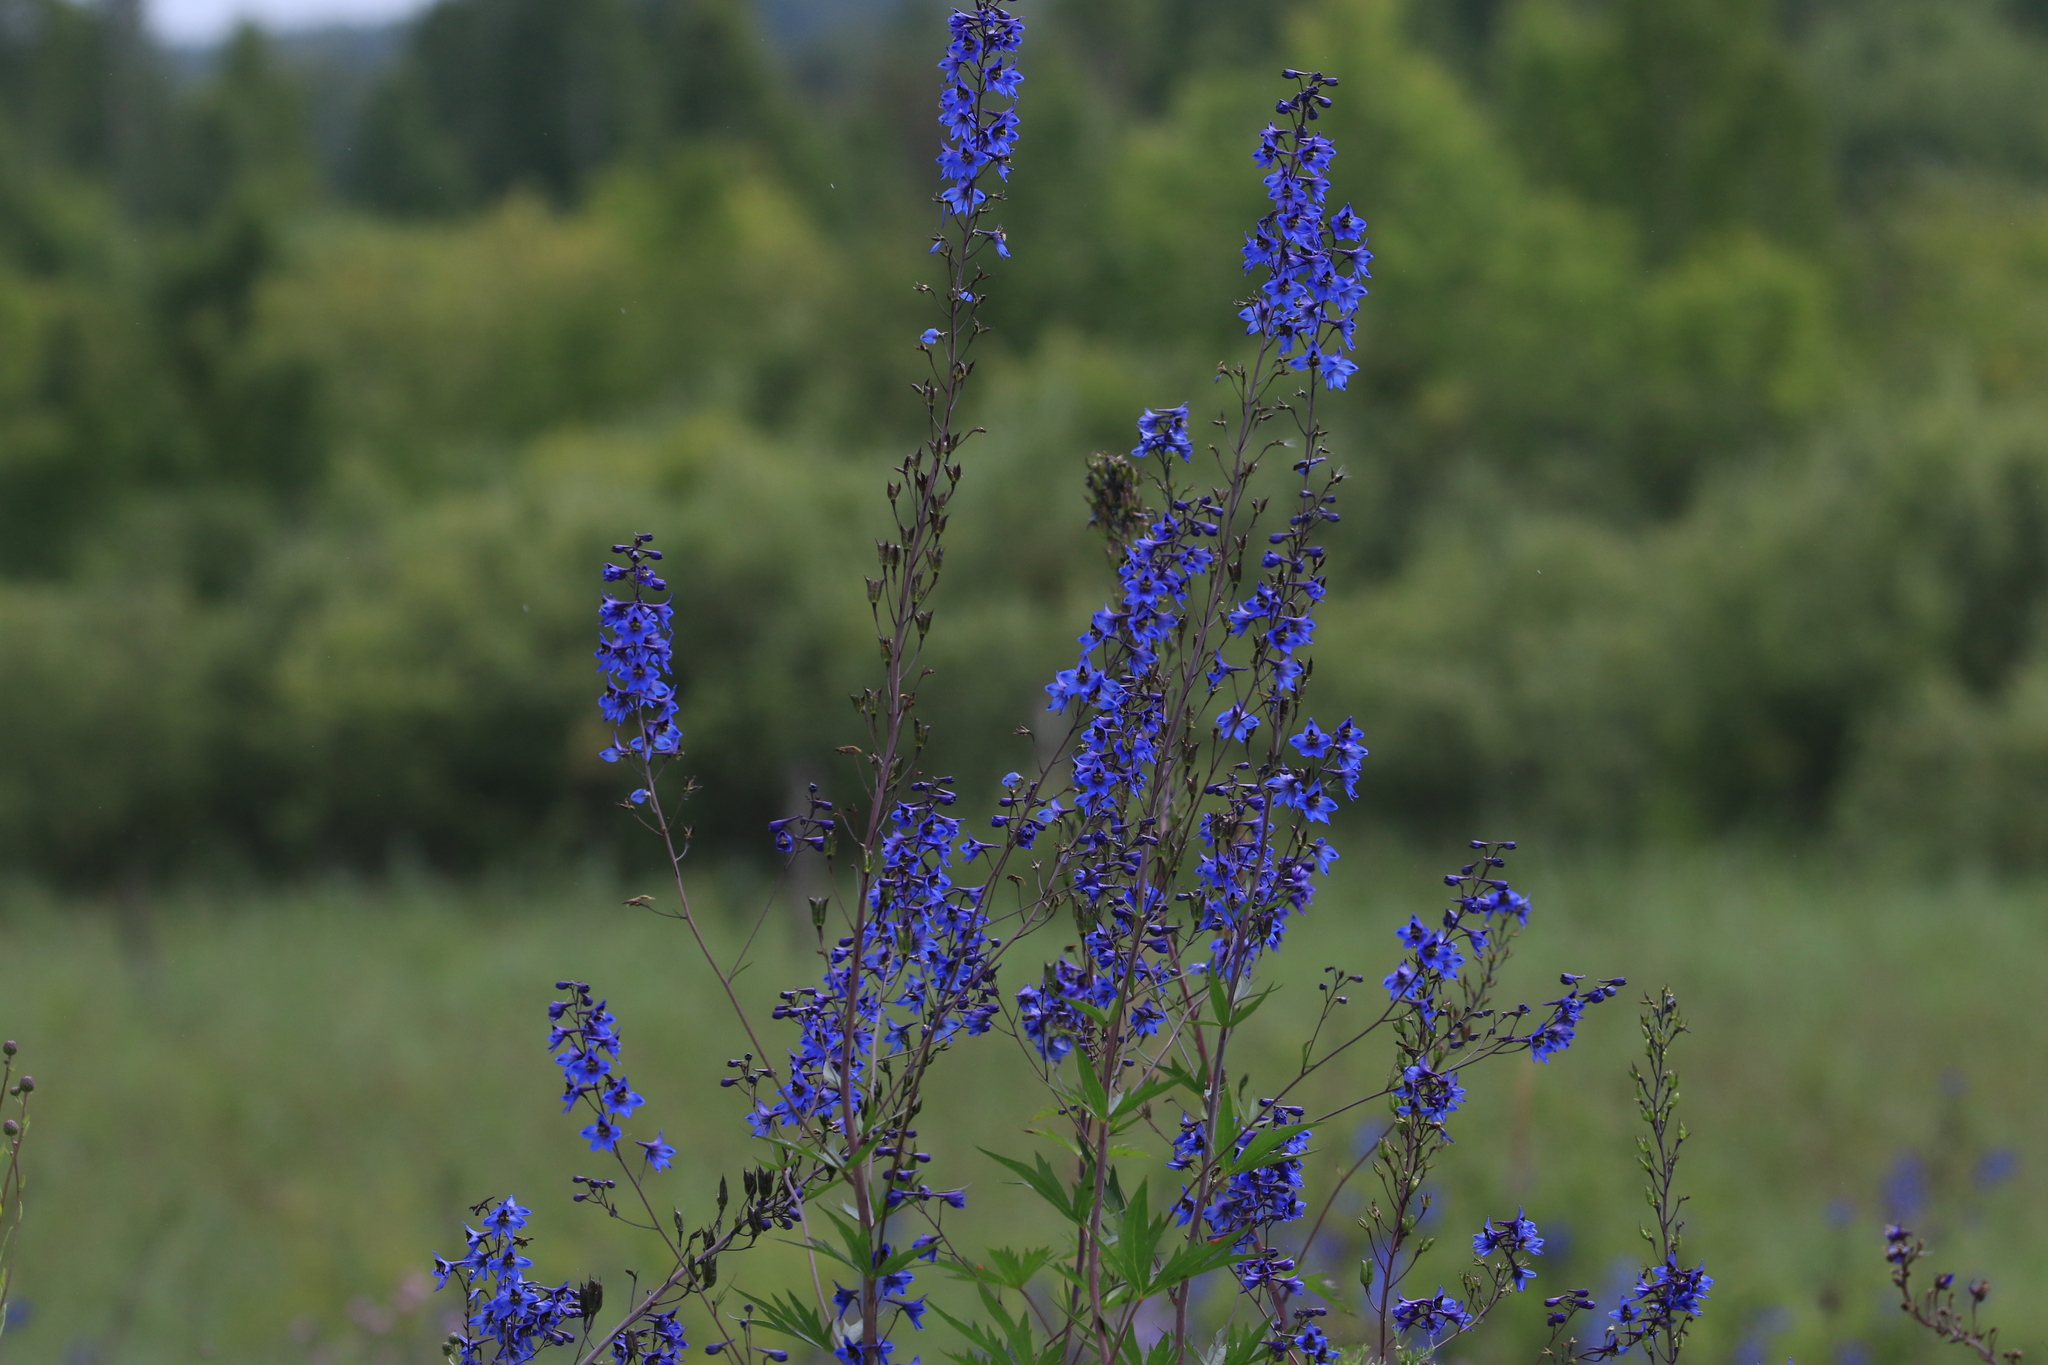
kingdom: Plantae
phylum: Tracheophyta
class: Magnoliopsida
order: Ranunculales
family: Ranunculaceae
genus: Delphinium
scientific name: Delphinium elatum
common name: Candle larkspur
